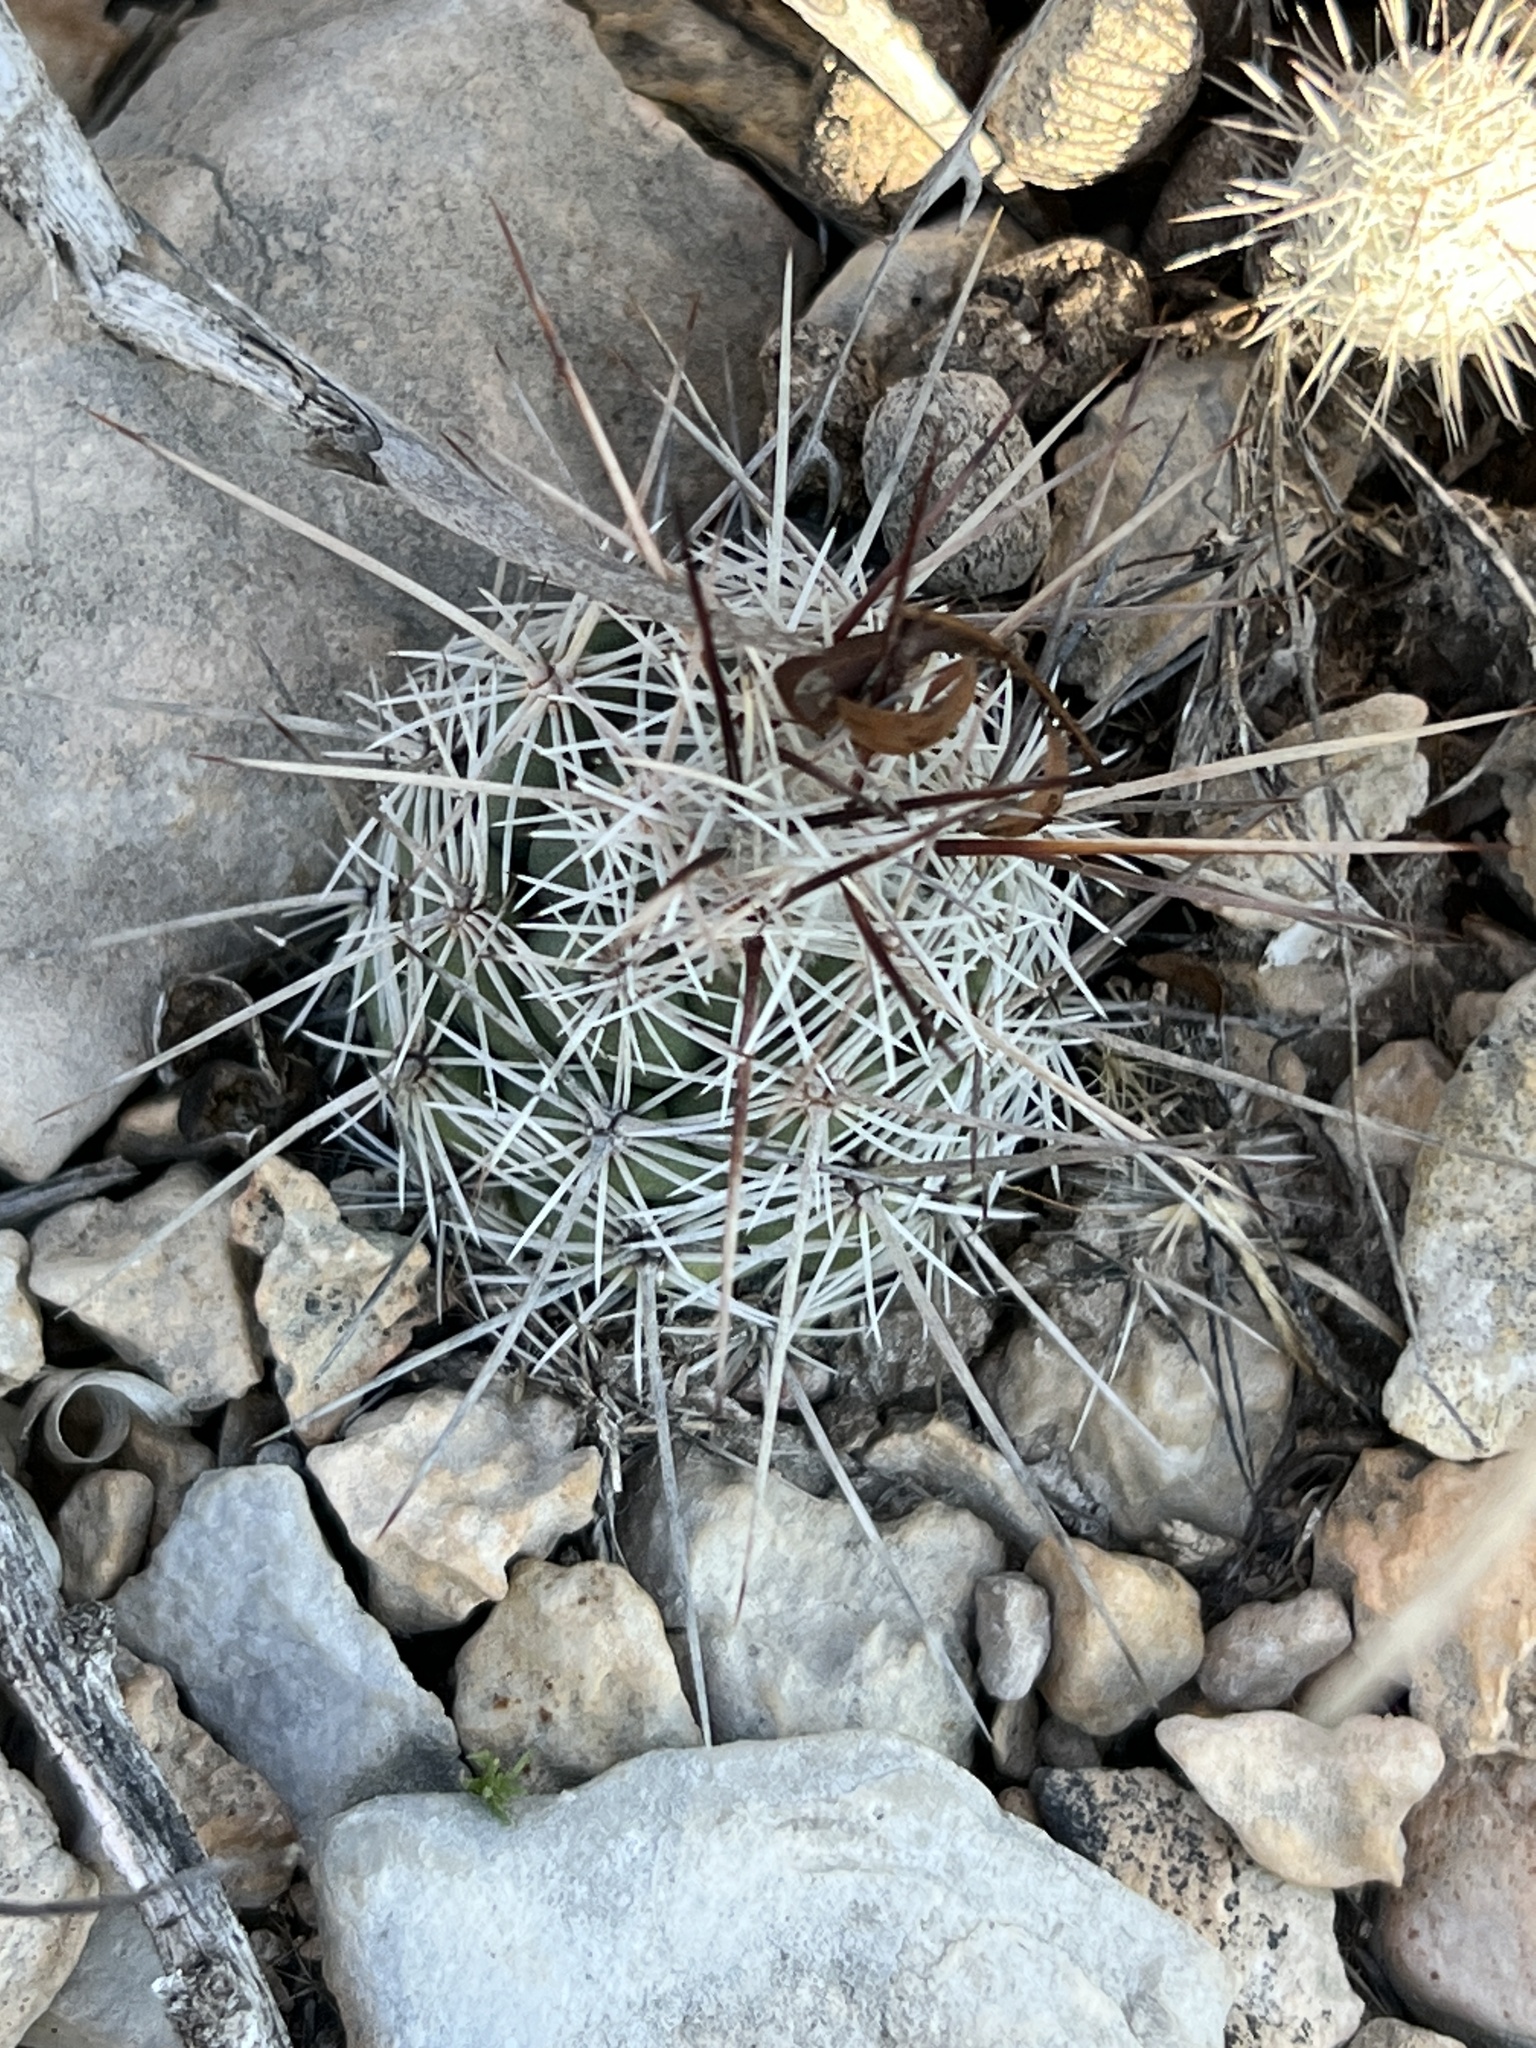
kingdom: Plantae
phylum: Tracheophyta
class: Magnoliopsida
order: Caryophyllales
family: Cactaceae
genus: Cochemiea
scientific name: Cochemiea conoidea
